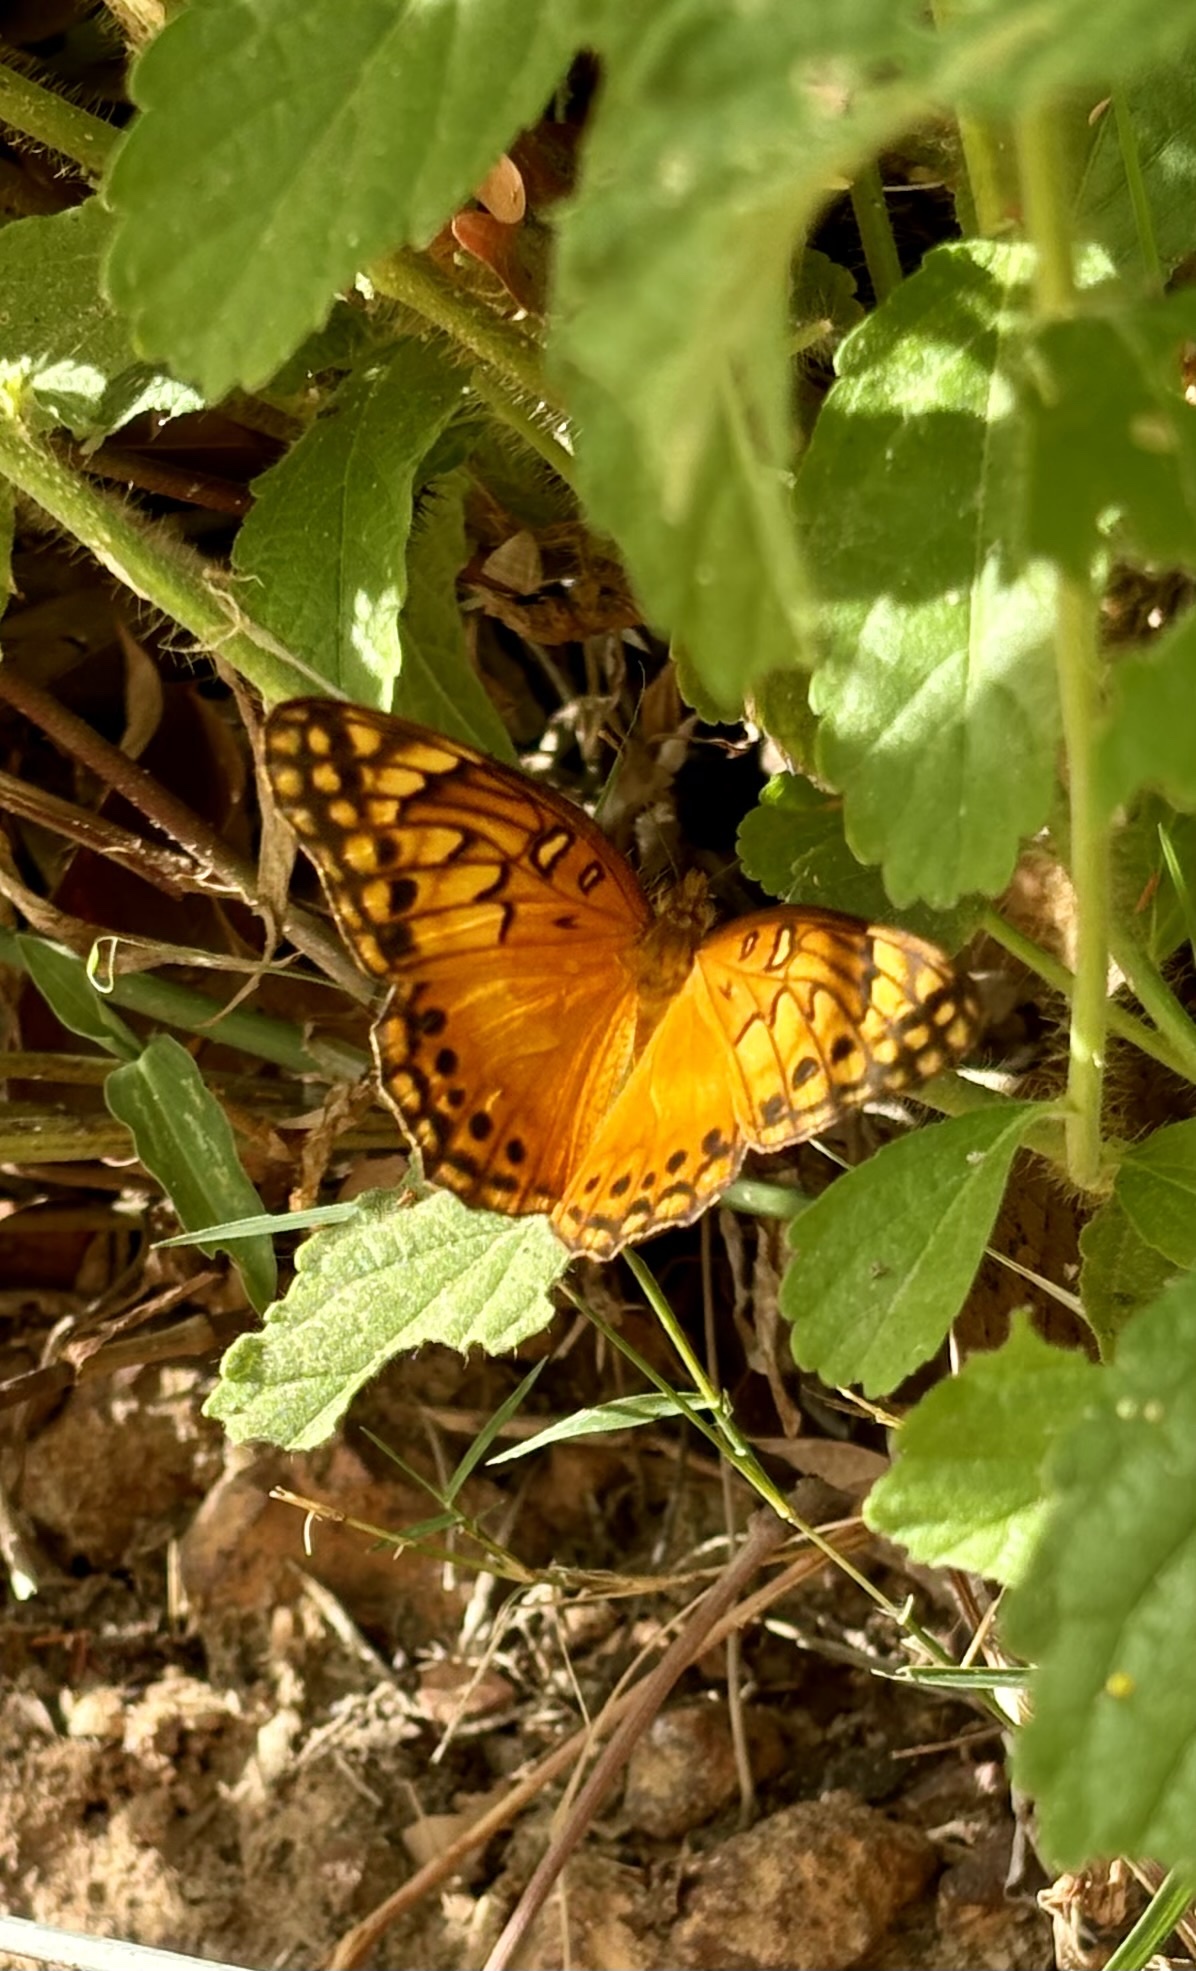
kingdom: Animalia
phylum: Arthropoda
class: Insecta
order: Lepidoptera
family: Nymphalidae
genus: Euptoieta
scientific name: Euptoieta hegesia
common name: Mexican fritillary
